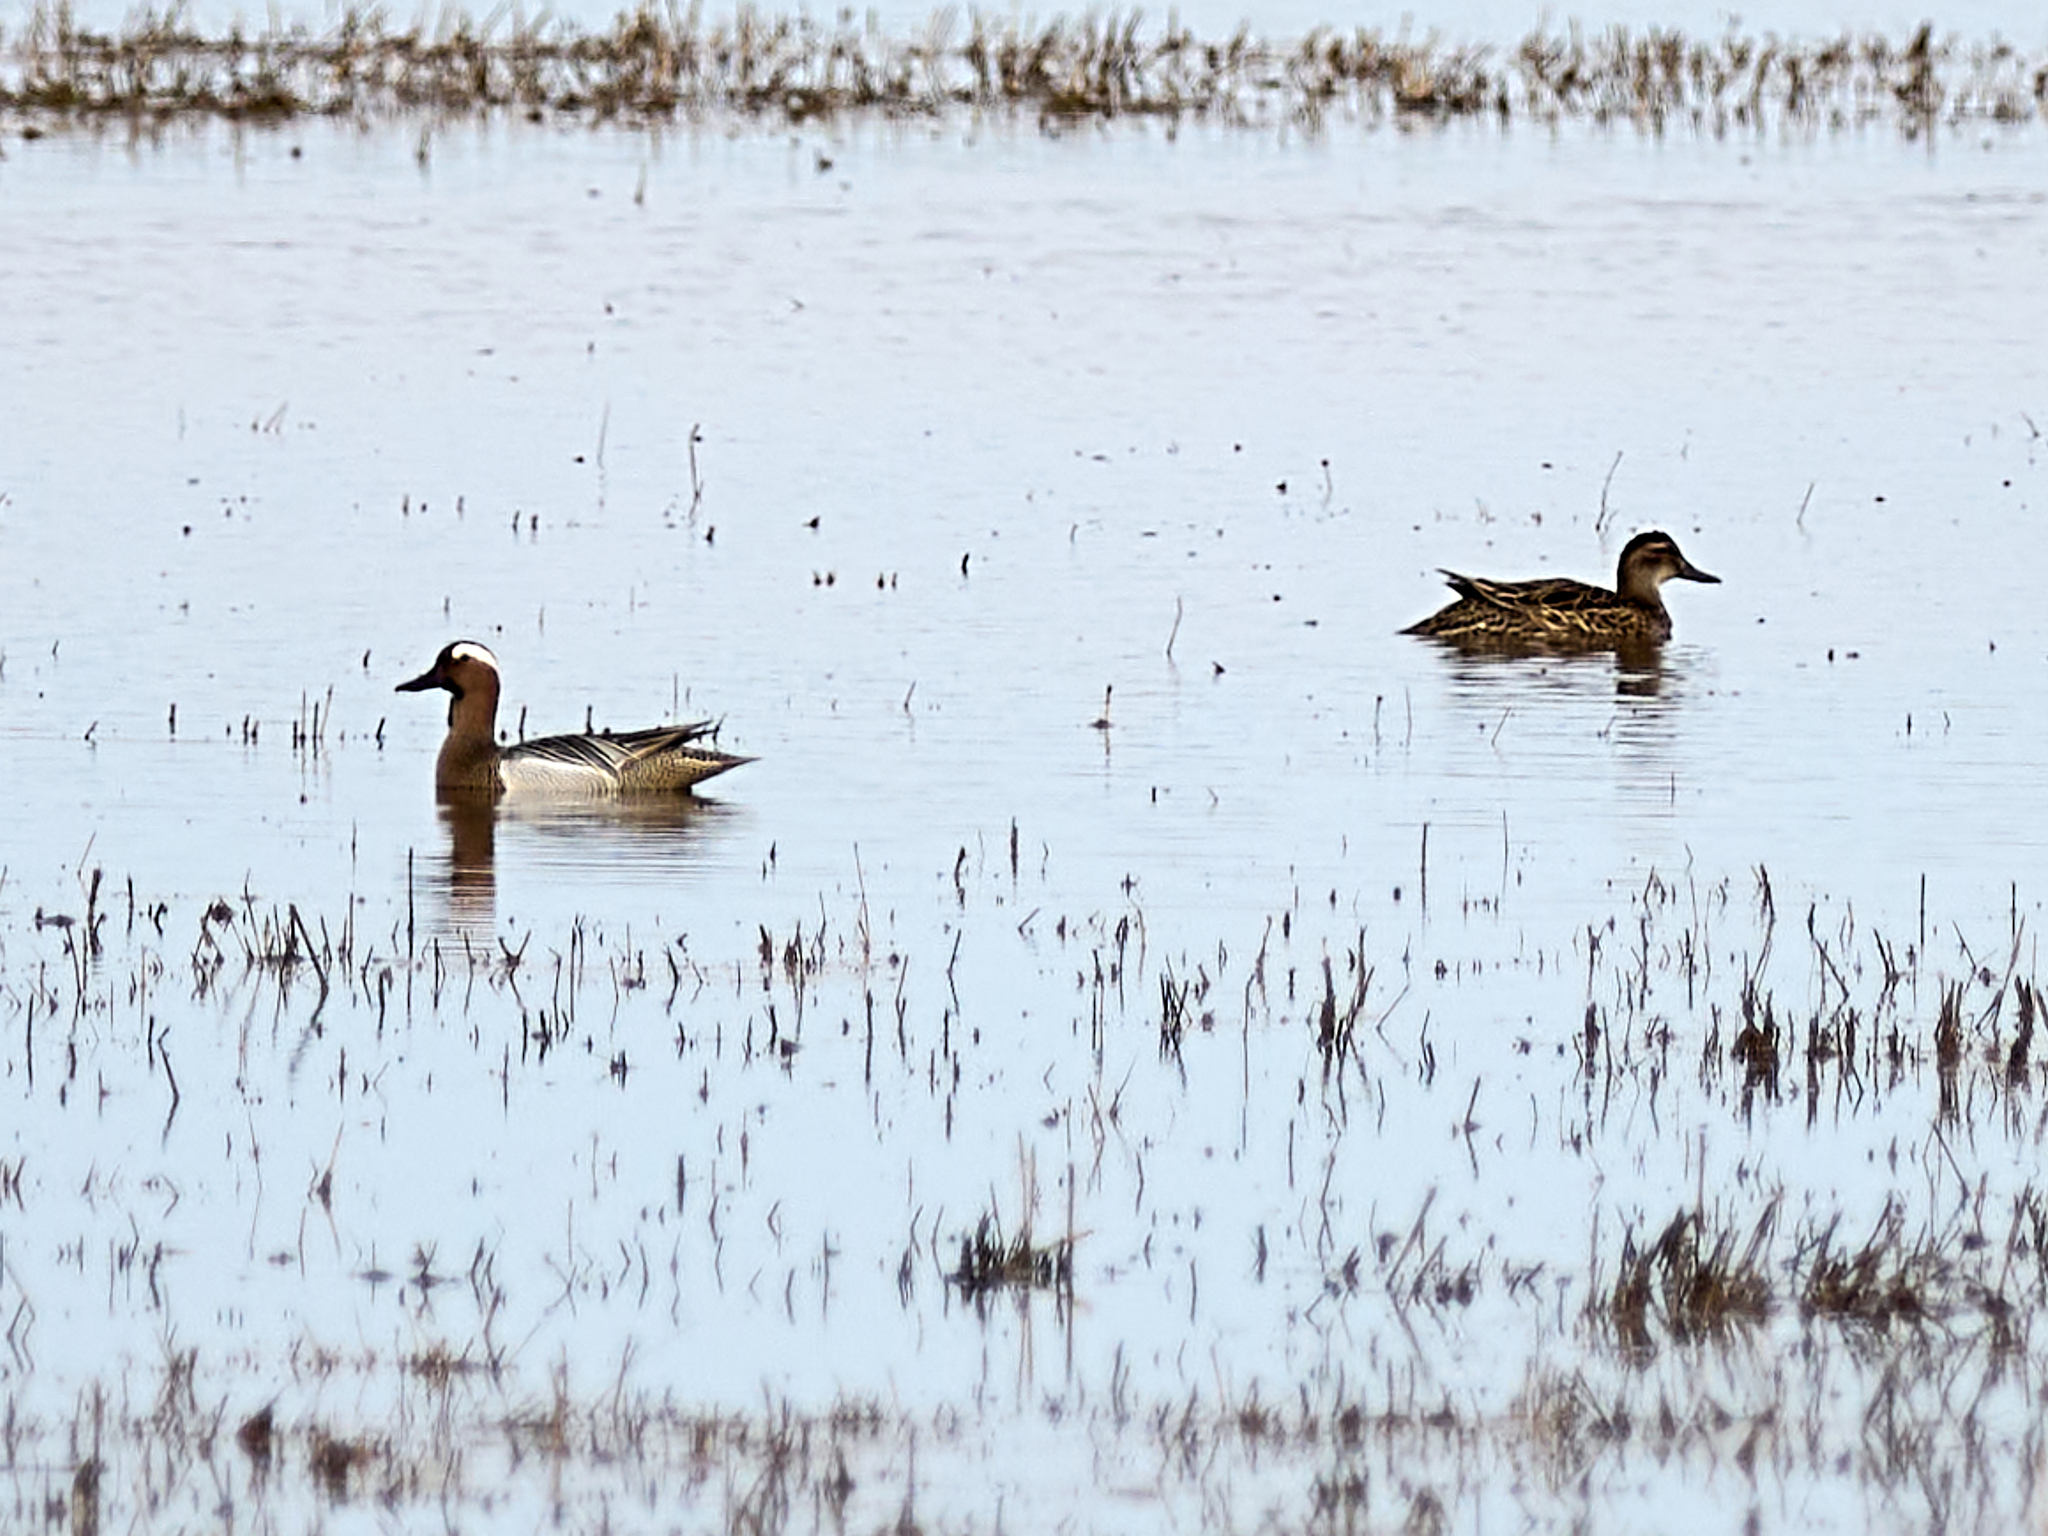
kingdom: Animalia
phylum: Chordata
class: Aves
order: Anseriformes
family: Anatidae
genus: Spatula
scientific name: Spatula querquedula
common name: Garganey
